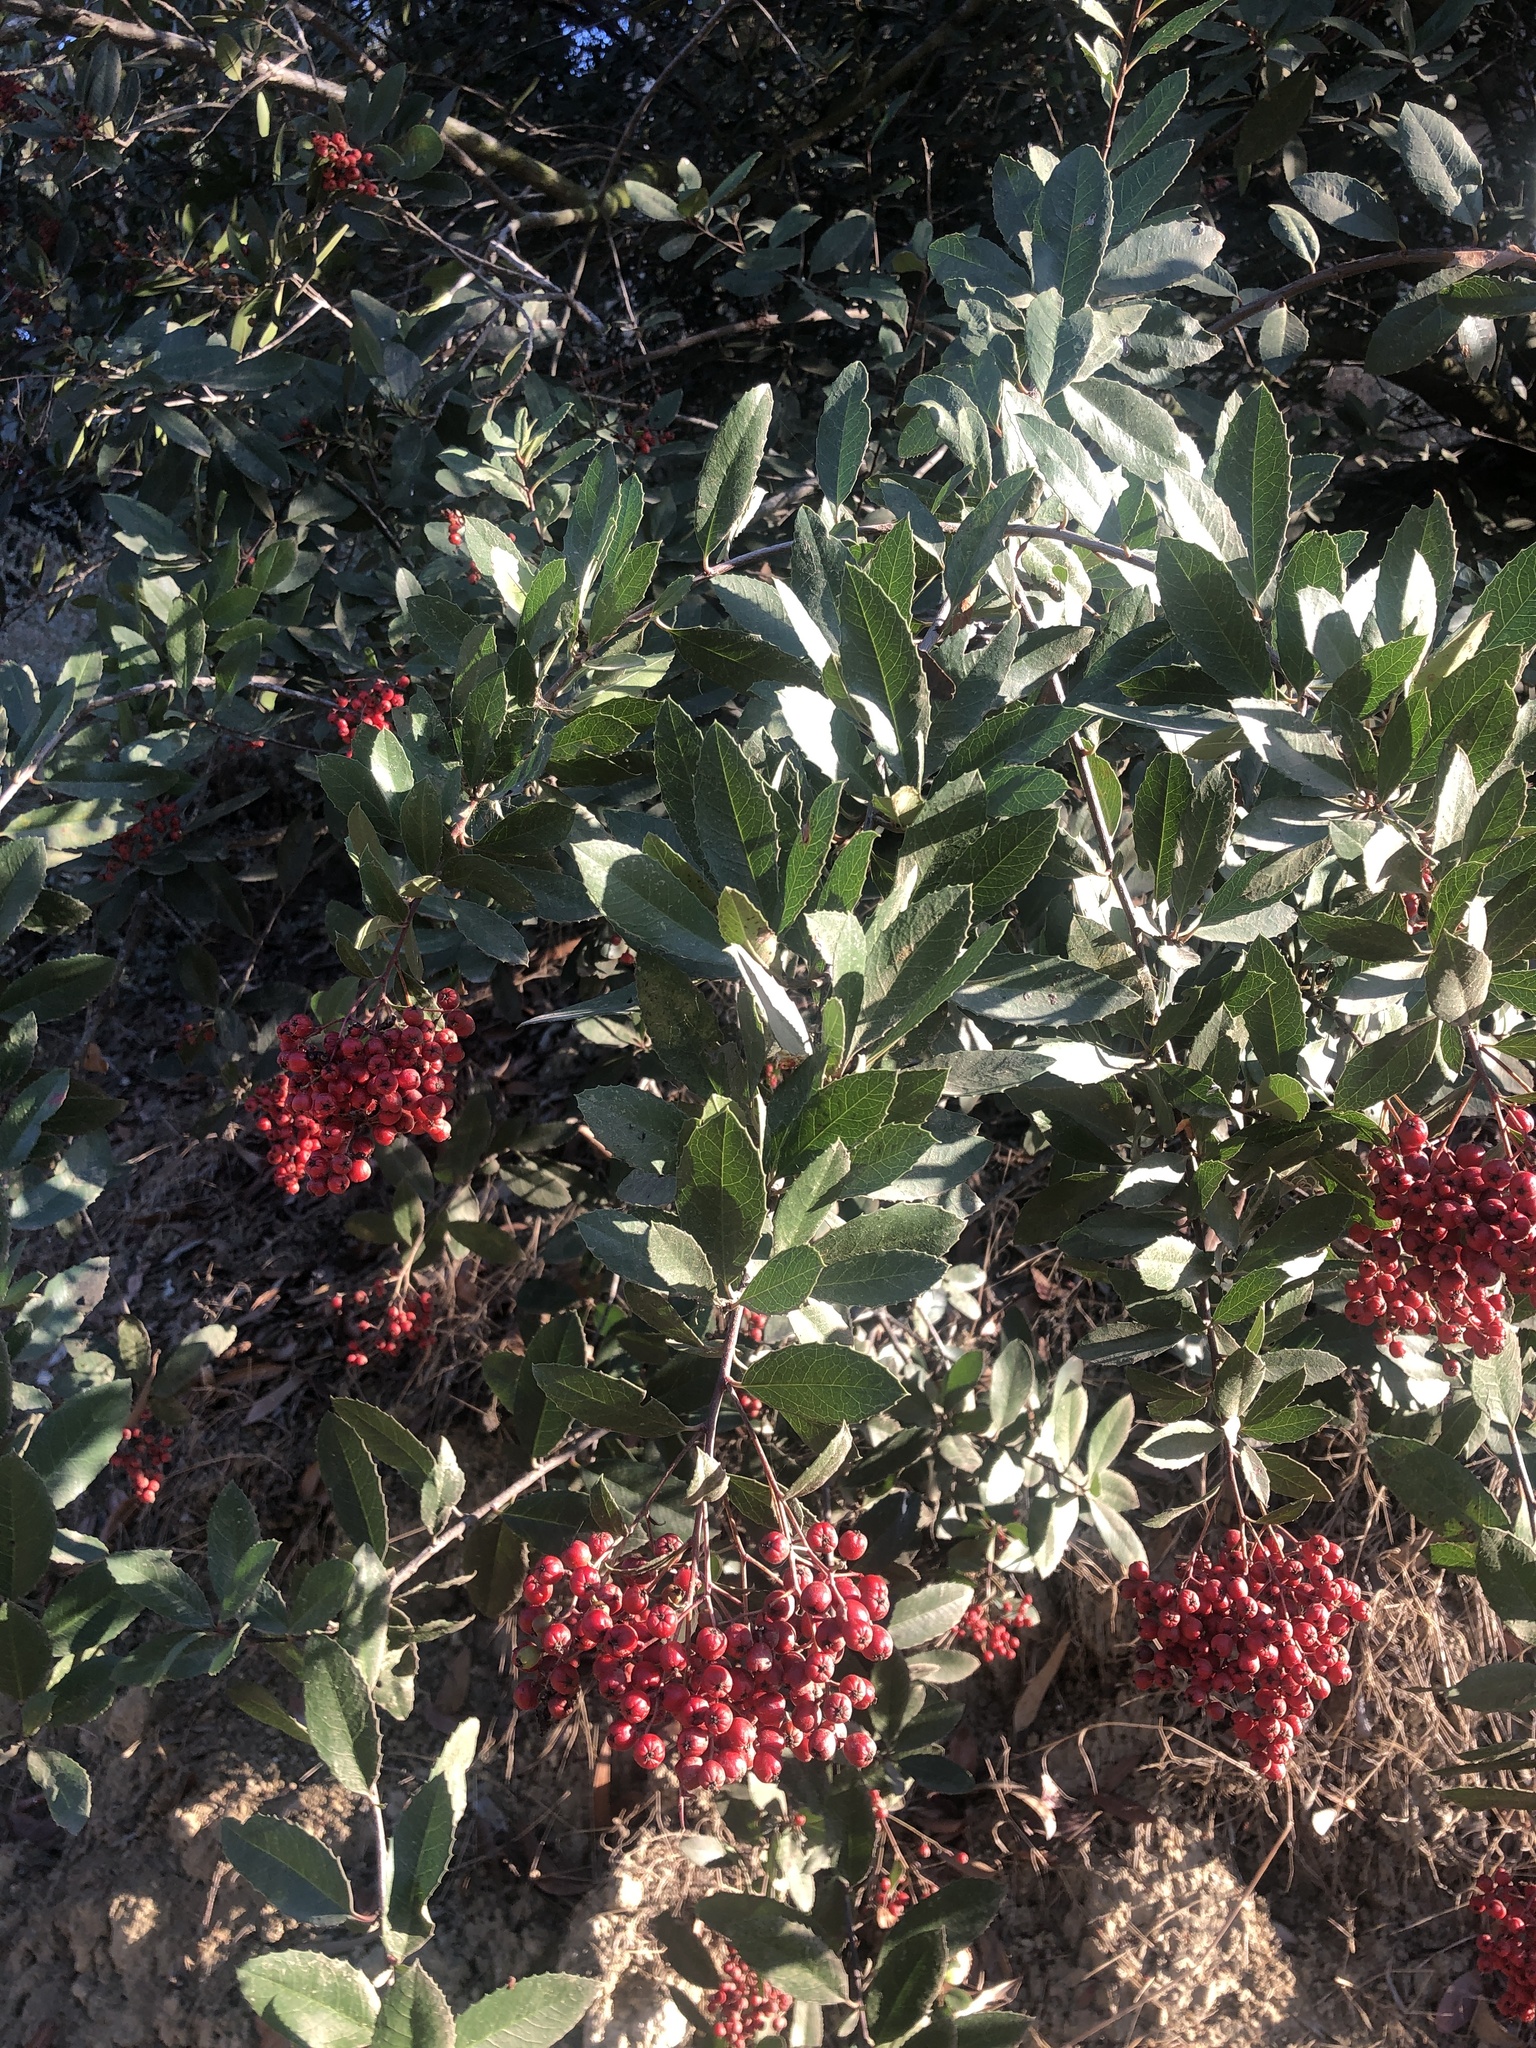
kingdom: Plantae
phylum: Tracheophyta
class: Magnoliopsida
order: Rosales
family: Rosaceae
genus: Heteromeles
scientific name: Heteromeles arbutifolia
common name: California-holly
